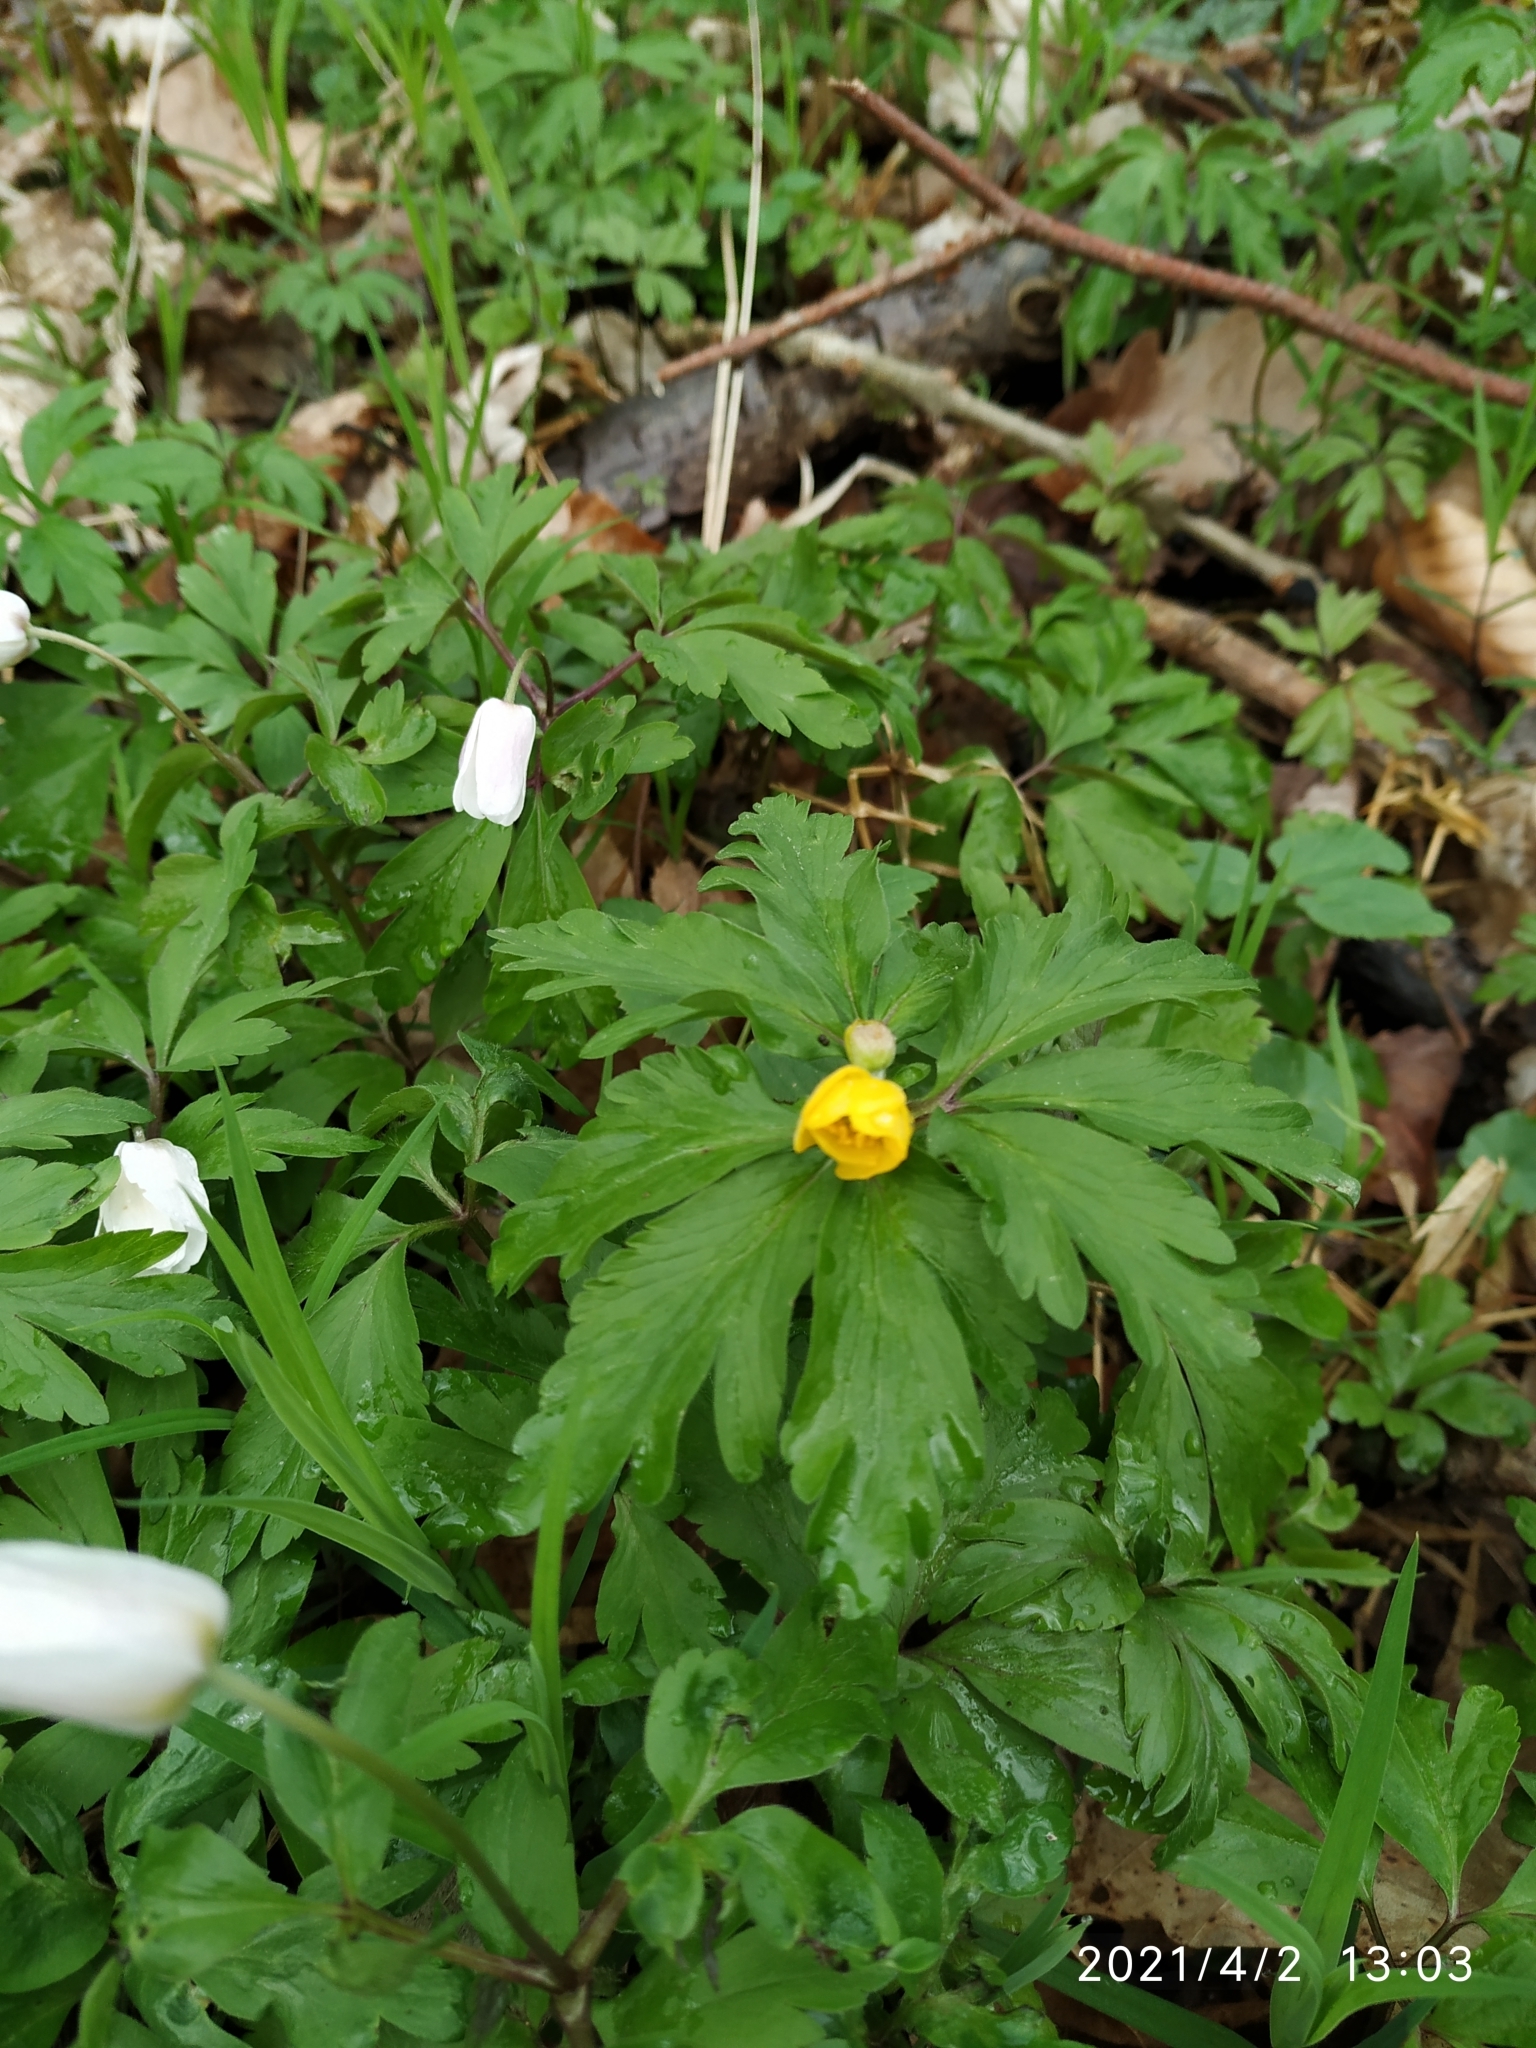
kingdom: Plantae
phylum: Tracheophyta
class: Magnoliopsida
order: Ranunculales
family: Ranunculaceae
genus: Anemone
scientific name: Anemone ranunculoides
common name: Yellow anemone
